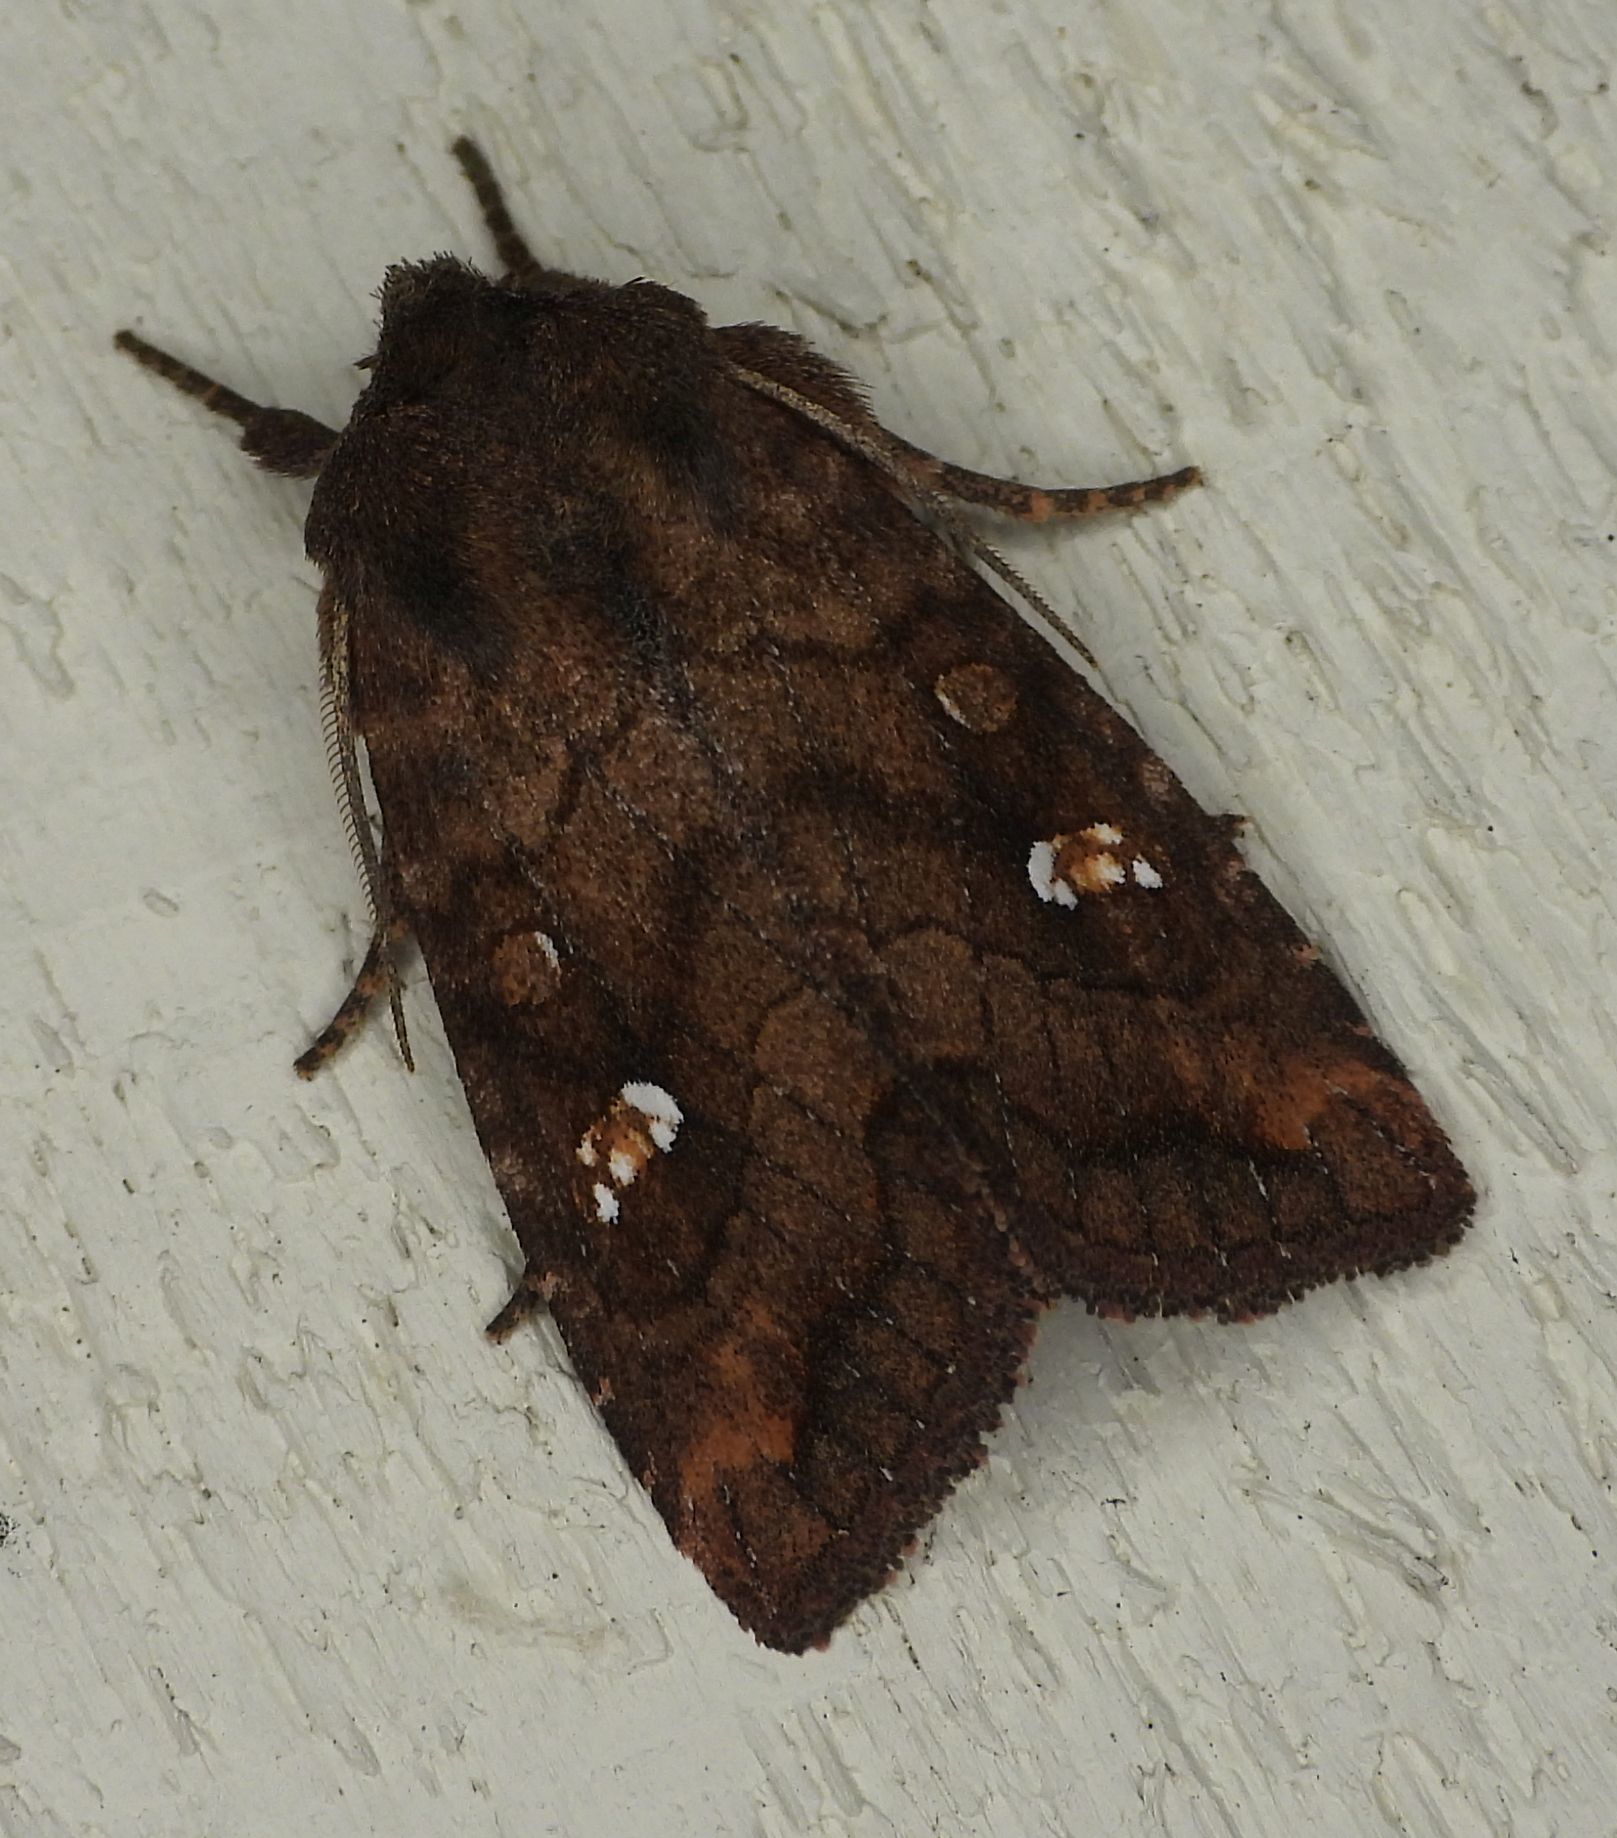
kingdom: Animalia
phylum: Arthropoda
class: Insecta
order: Lepidoptera
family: Noctuidae
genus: Tricholita
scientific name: Tricholita signata
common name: Signate quaker
